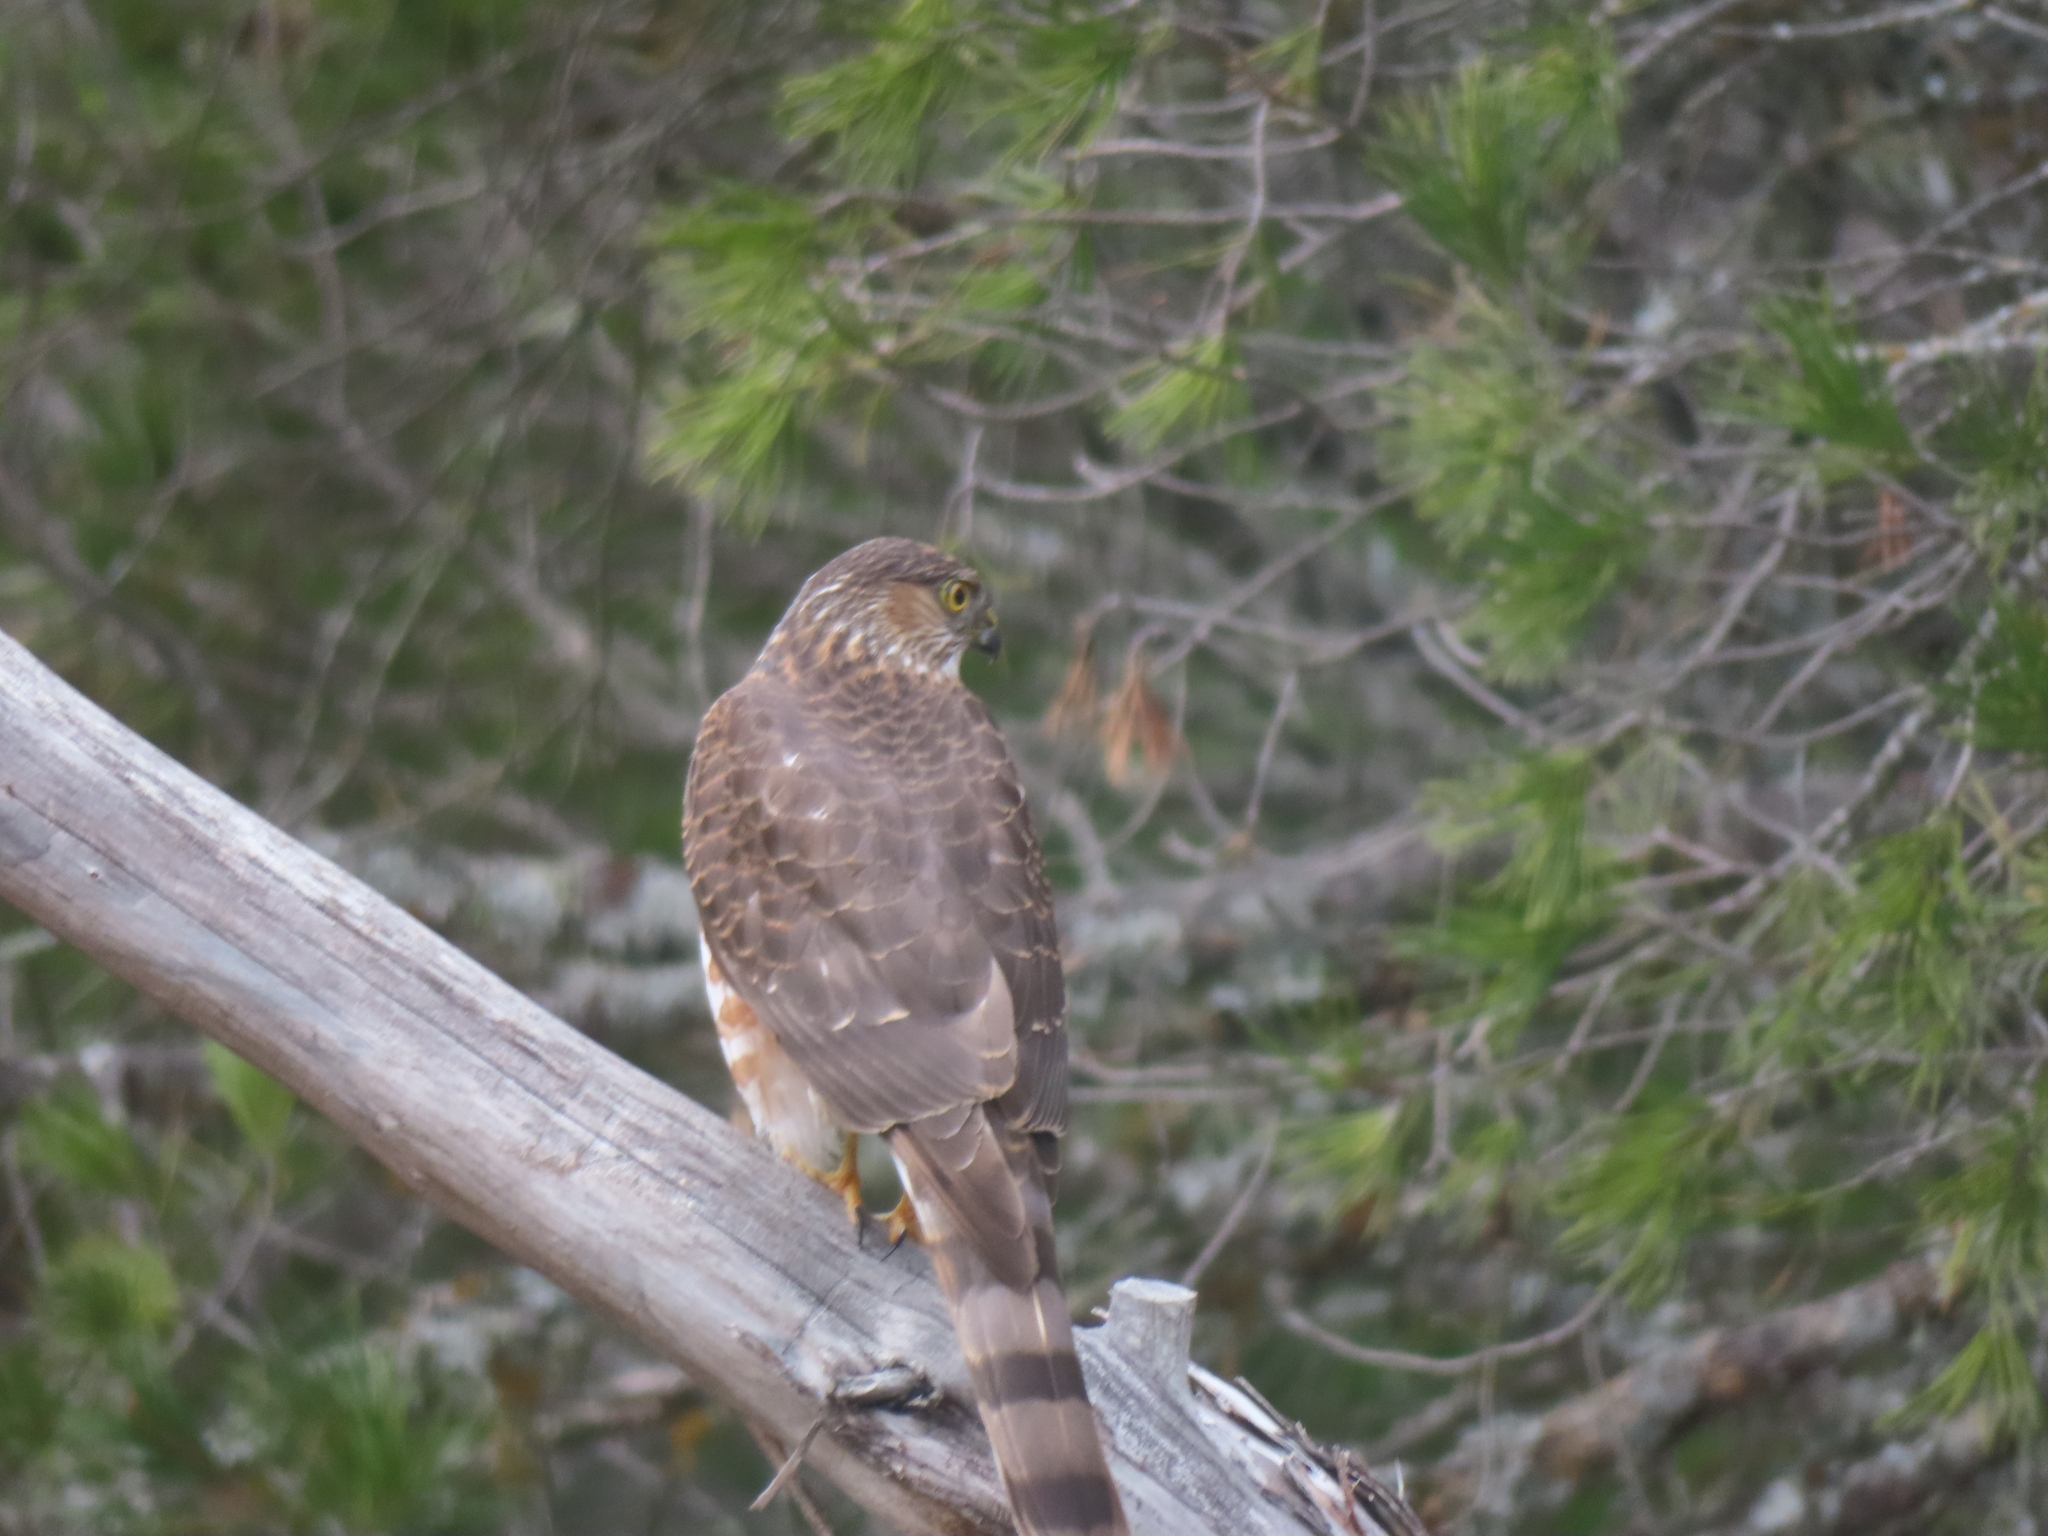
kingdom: Animalia
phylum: Chordata
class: Aves
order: Accipitriformes
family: Accipitridae
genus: Accipiter
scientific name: Accipiter striatus
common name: Sharp-shinned hawk
